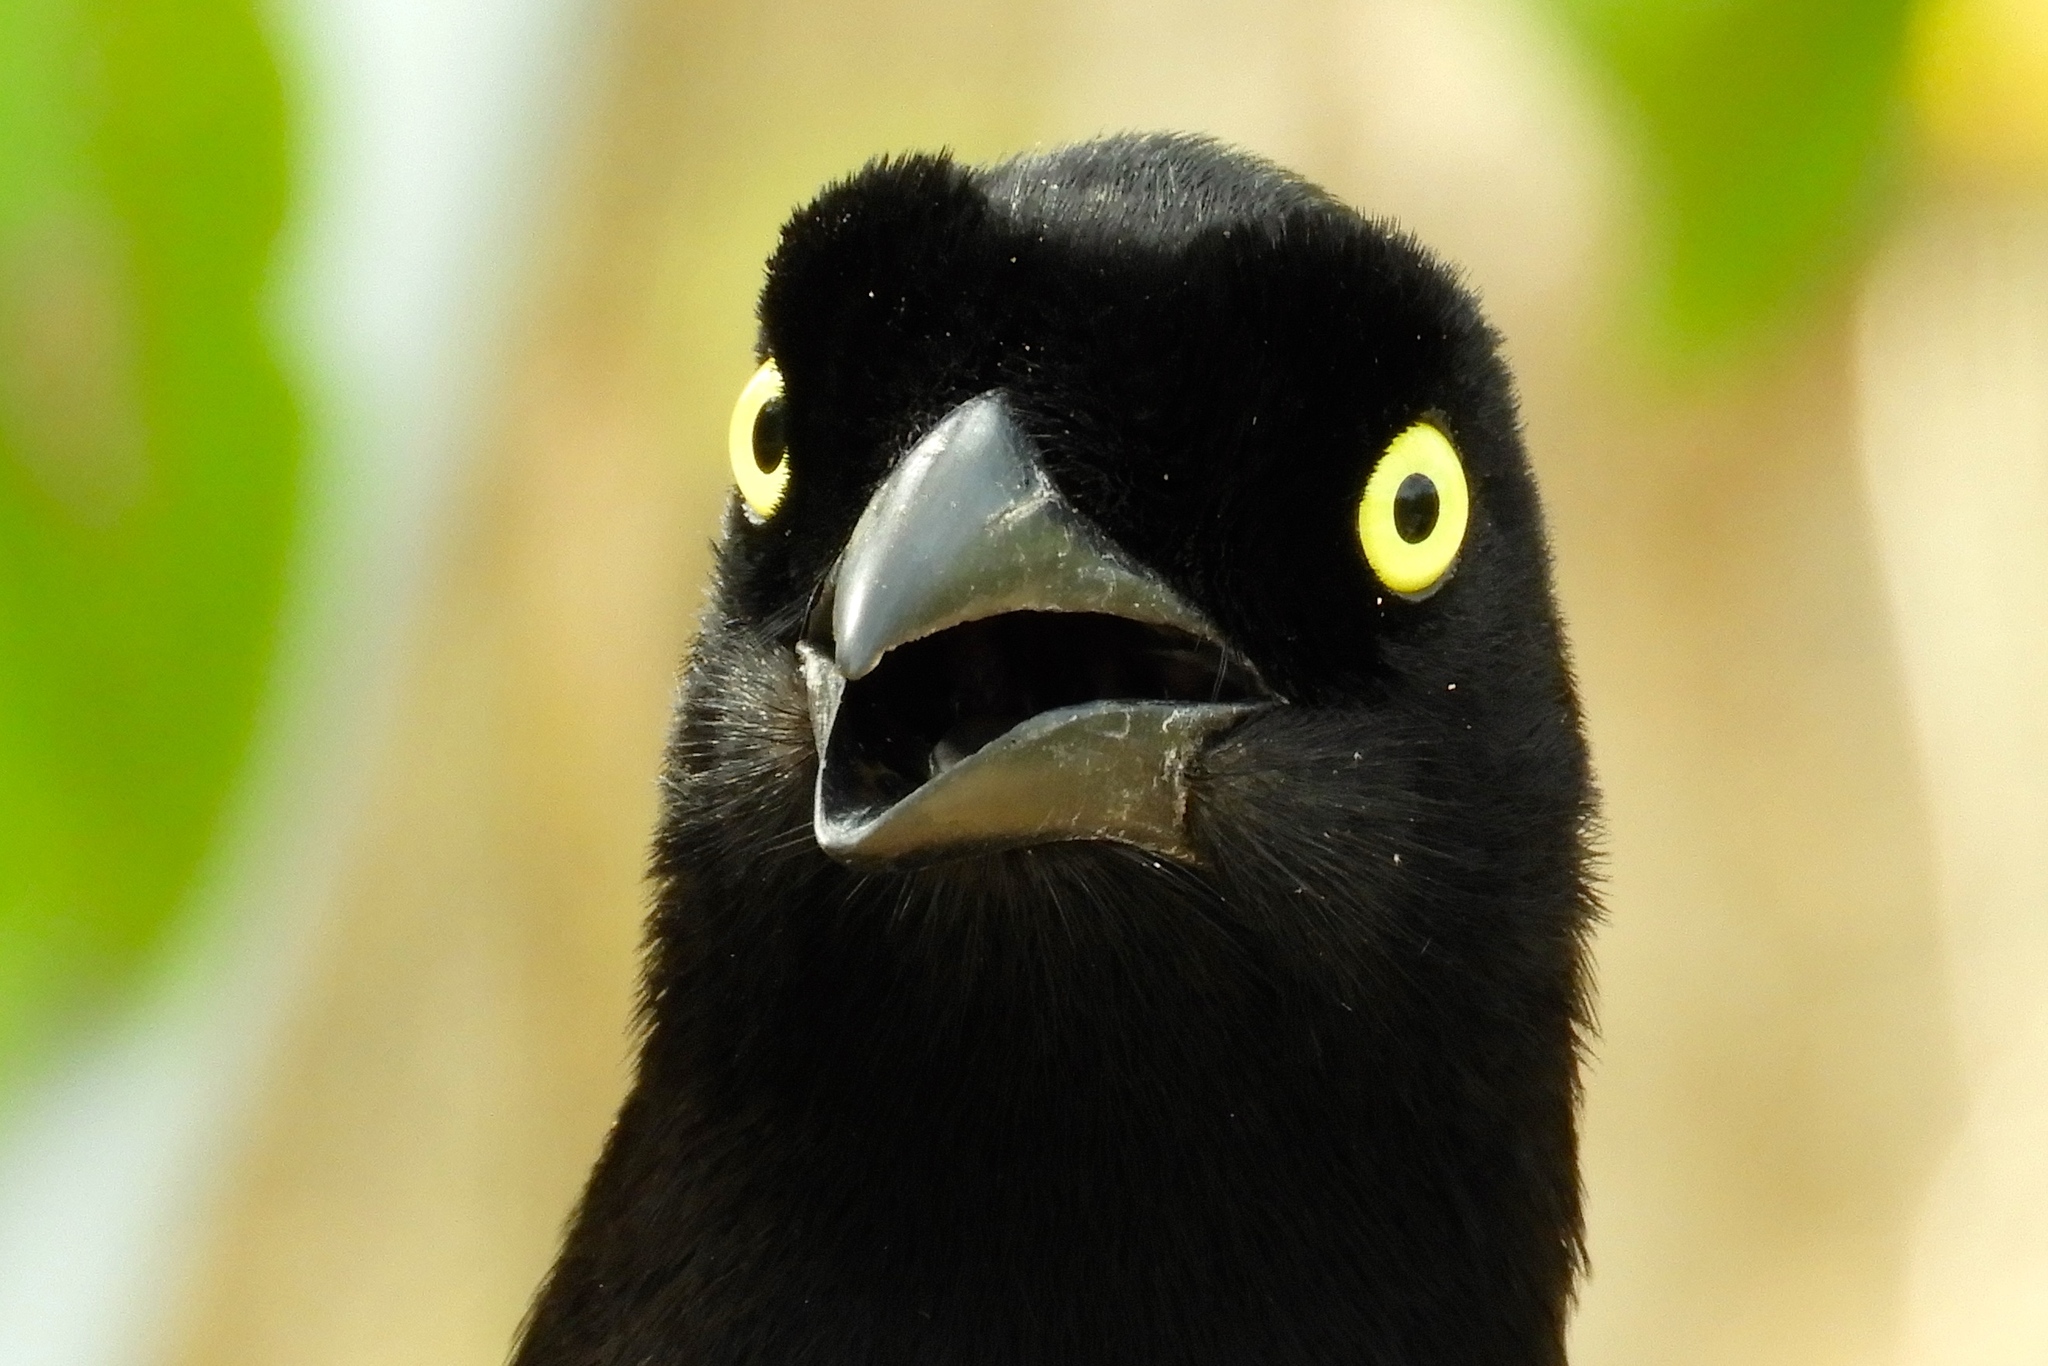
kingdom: Animalia
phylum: Chordata
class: Aves
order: Passeriformes
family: Corvidae
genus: Cyanocorax
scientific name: Cyanocorax beecheii
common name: Purplish-backed jay
